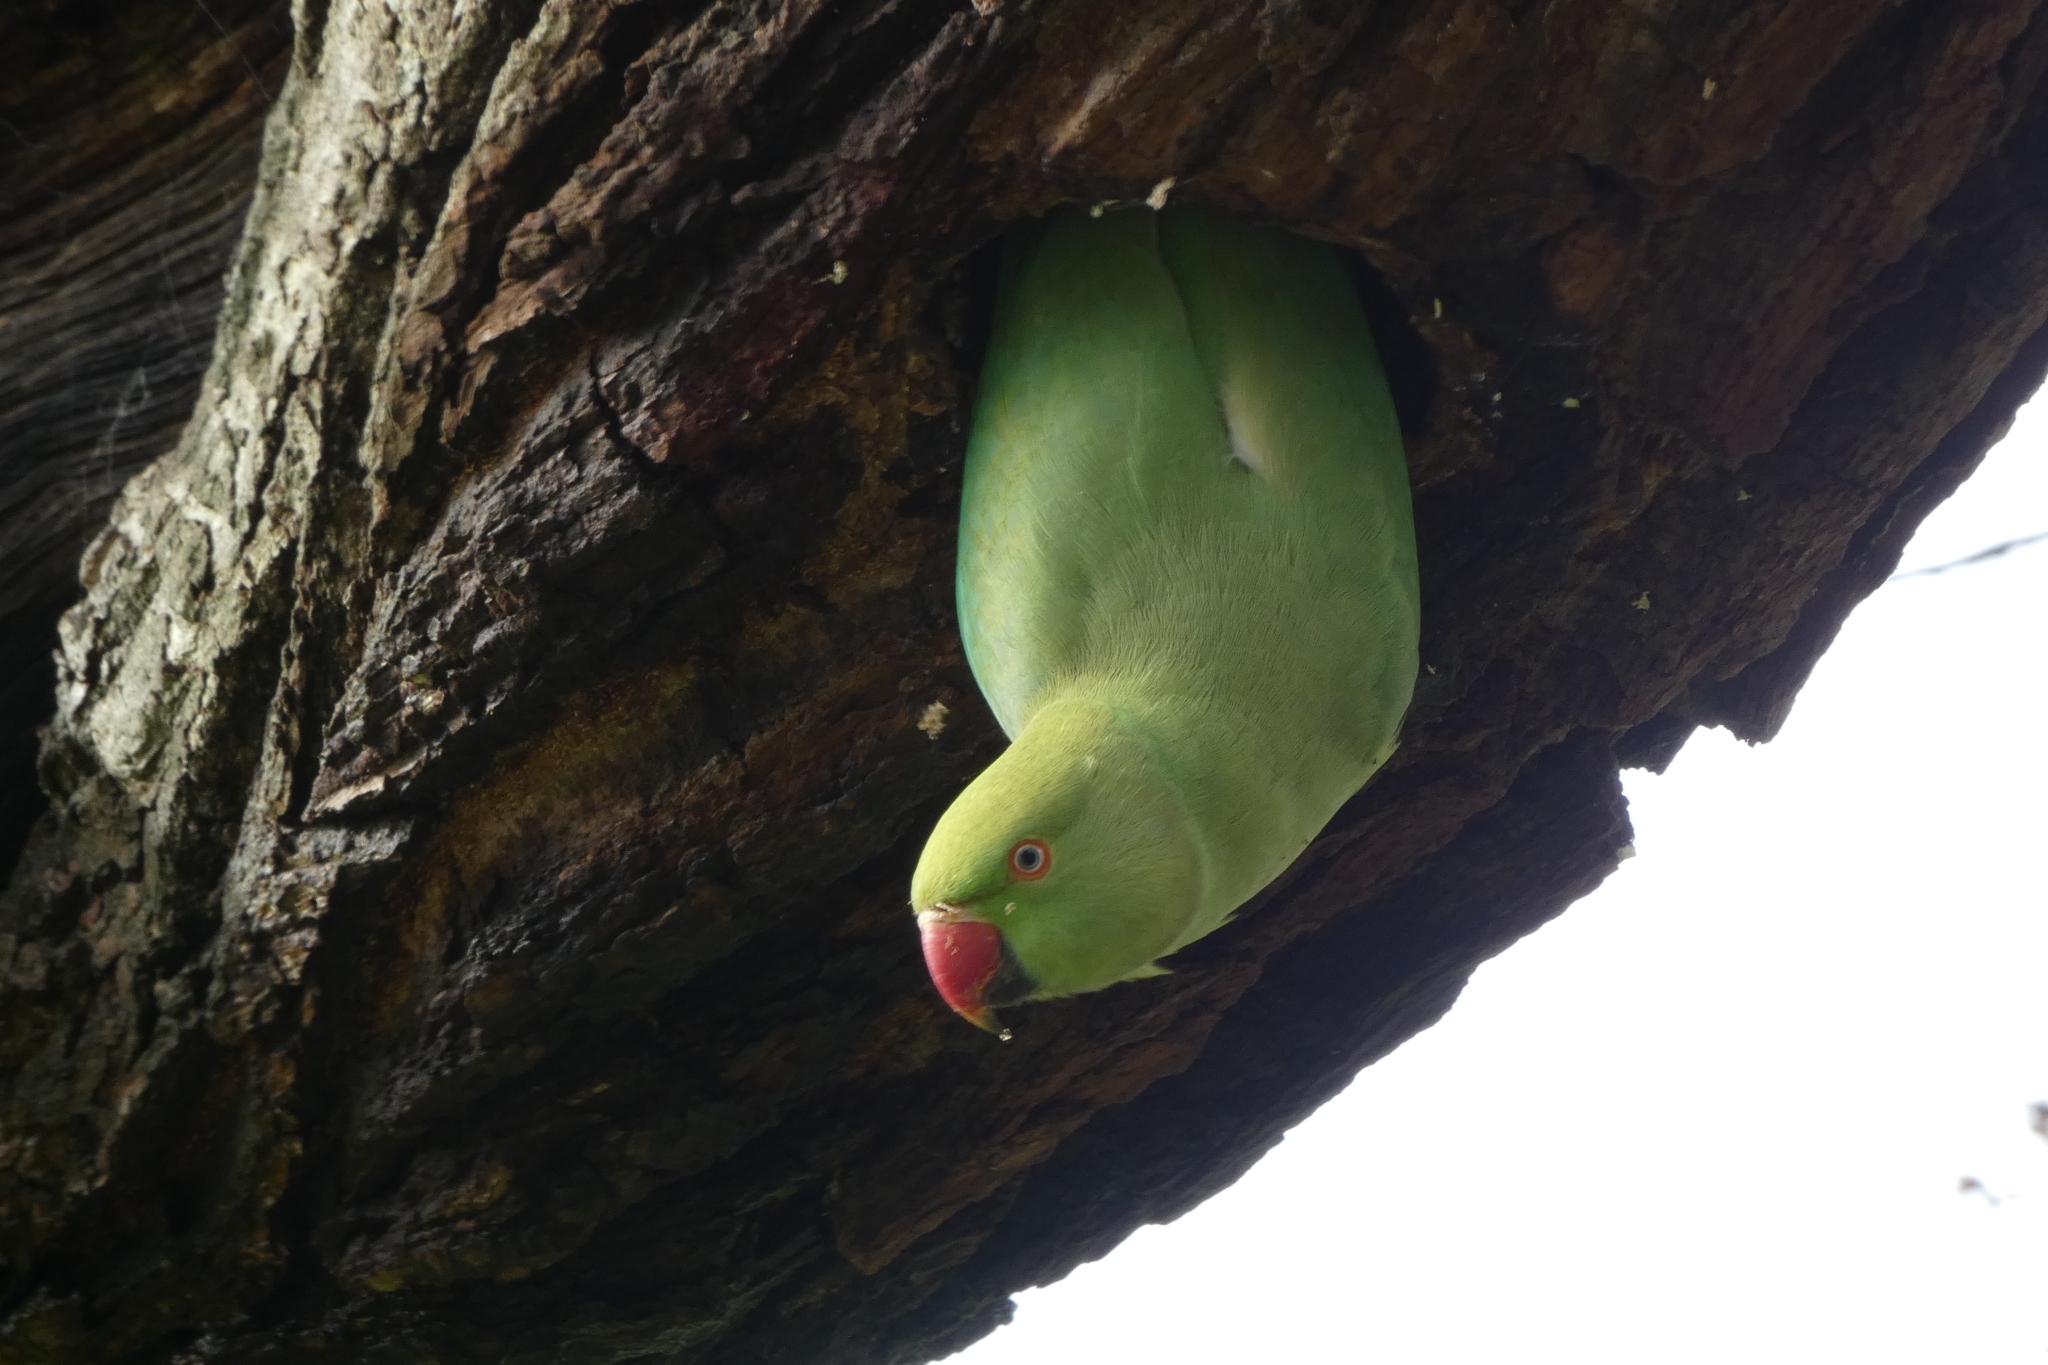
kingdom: Animalia
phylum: Chordata
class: Aves
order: Psittaciformes
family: Psittacidae
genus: Psittacula
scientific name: Psittacula krameri
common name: Rose-ringed parakeet
